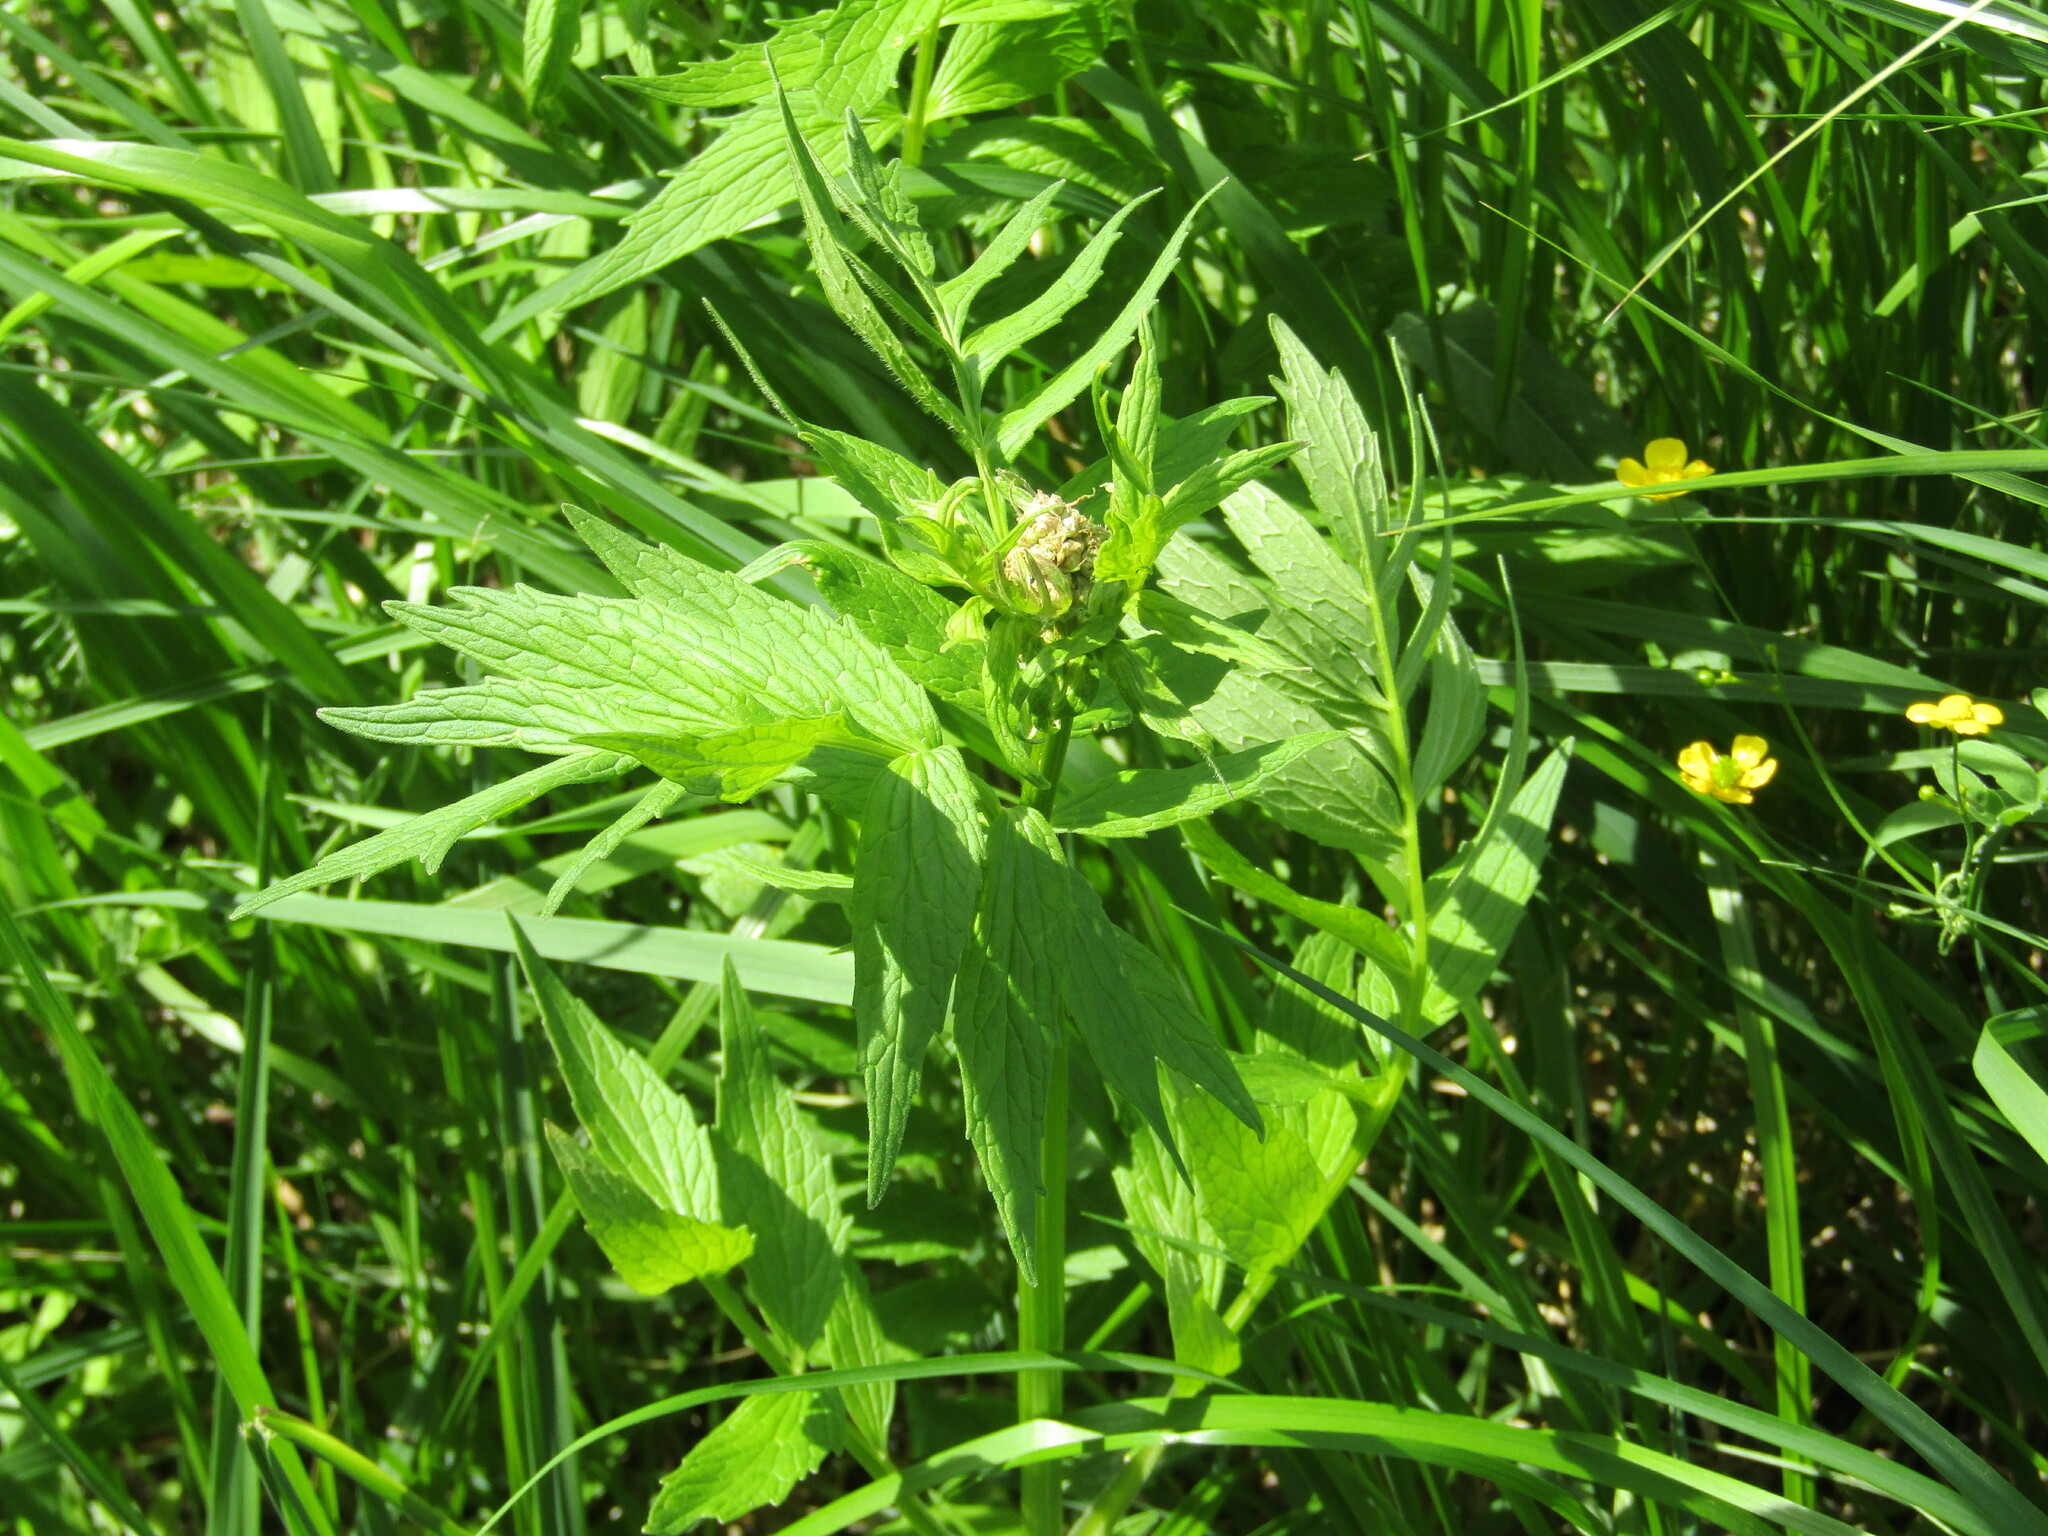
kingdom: Plantae
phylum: Tracheophyta
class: Magnoliopsida
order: Dipsacales
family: Caprifoliaceae
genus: Valeriana
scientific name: Valeriana officinalis
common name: Common valerian
